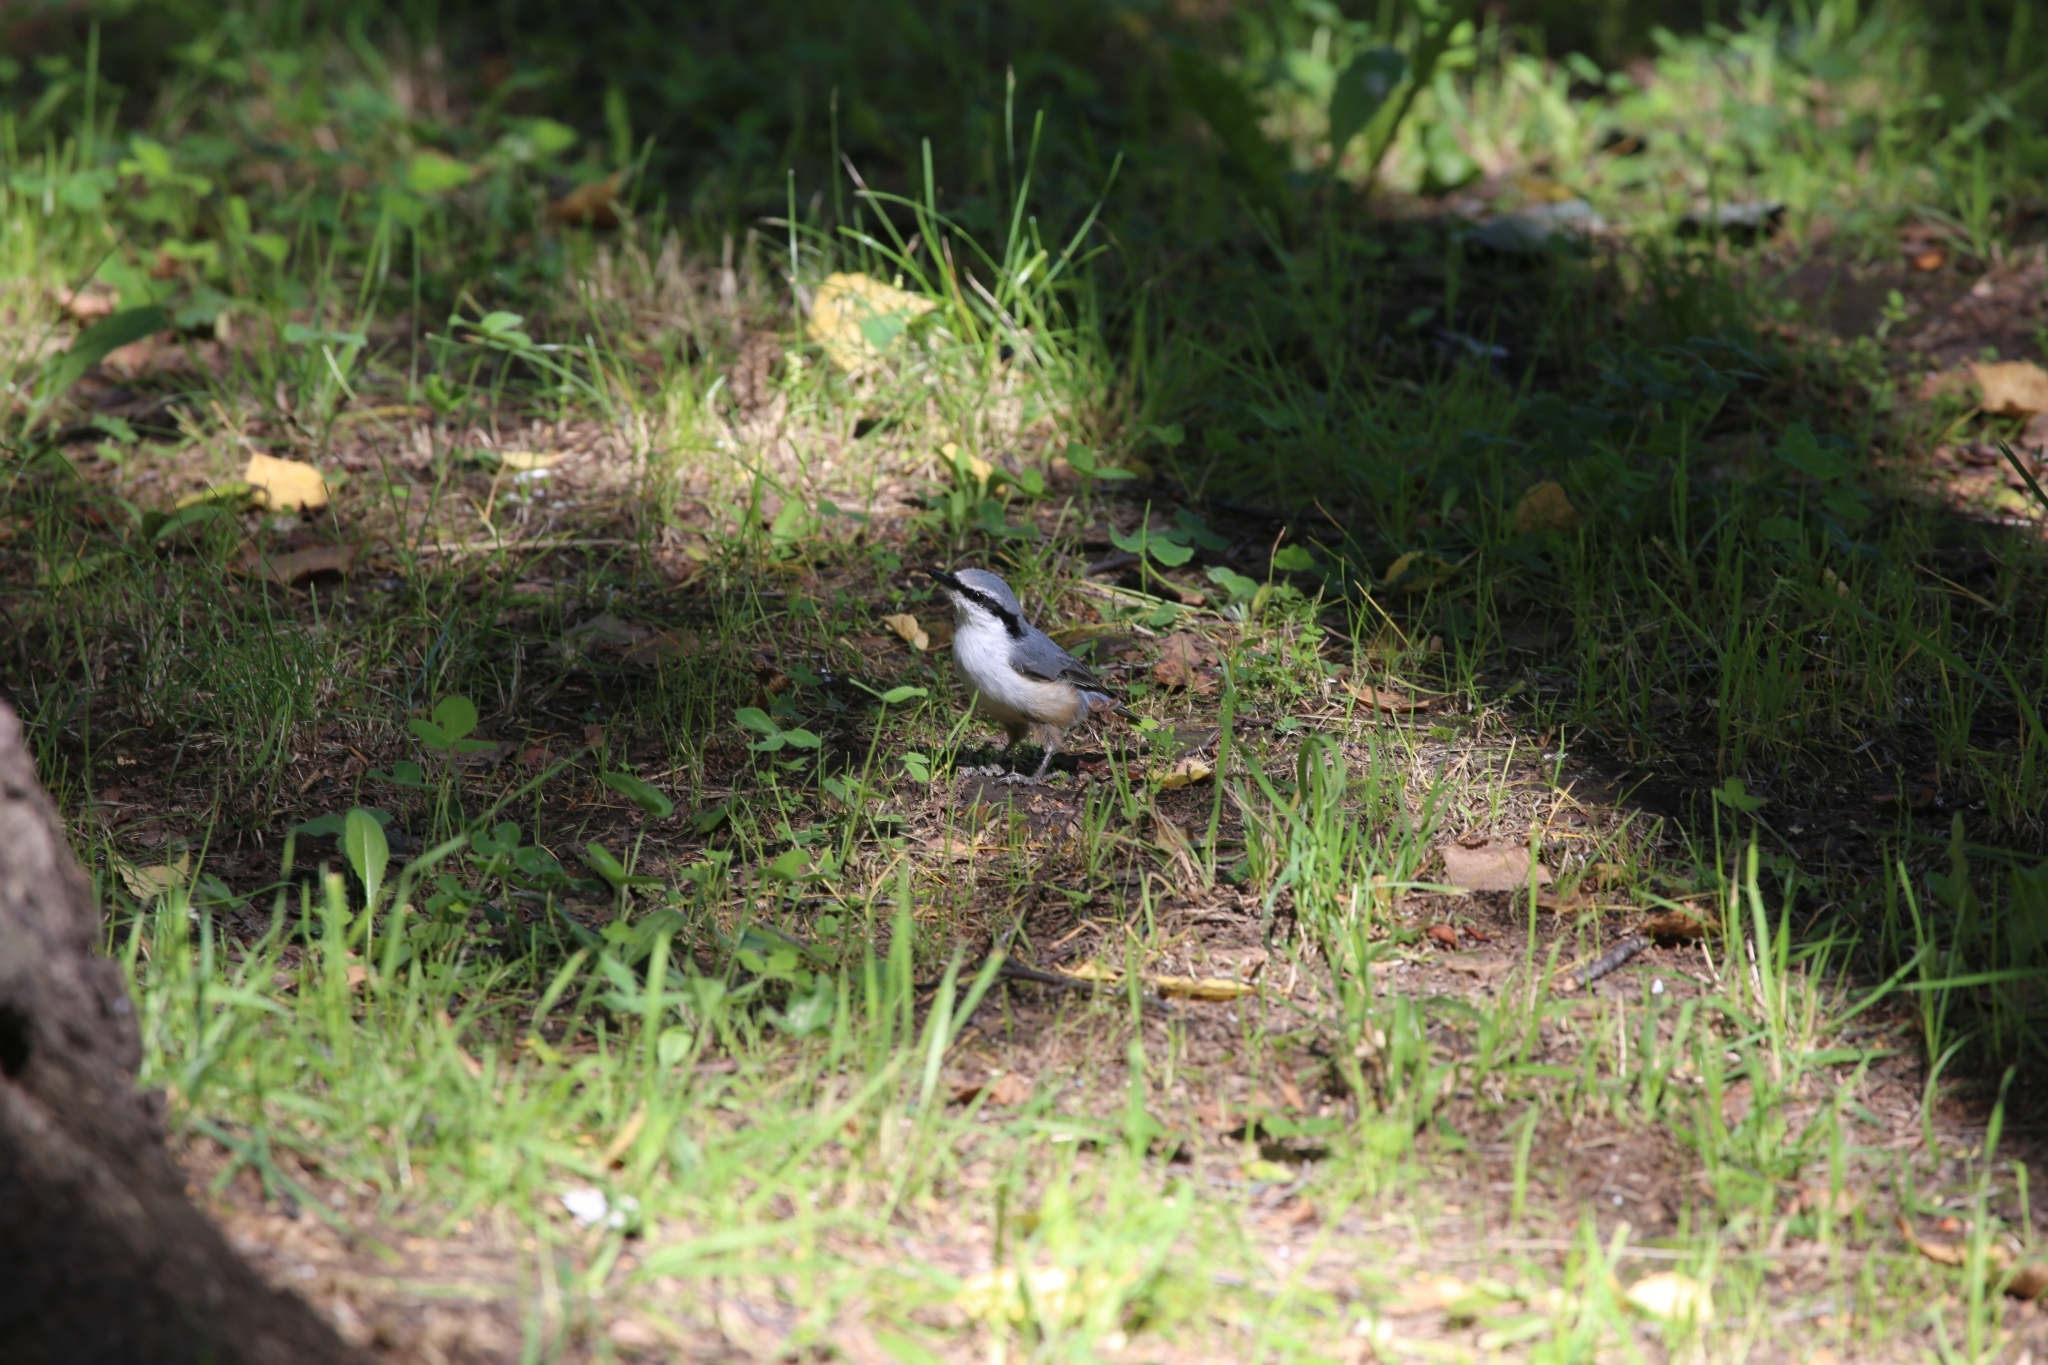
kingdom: Animalia
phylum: Chordata
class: Aves
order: Passeriformes
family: Sittidae
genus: Sitta
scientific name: Sitta europaea
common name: Eurasian nuthatch
